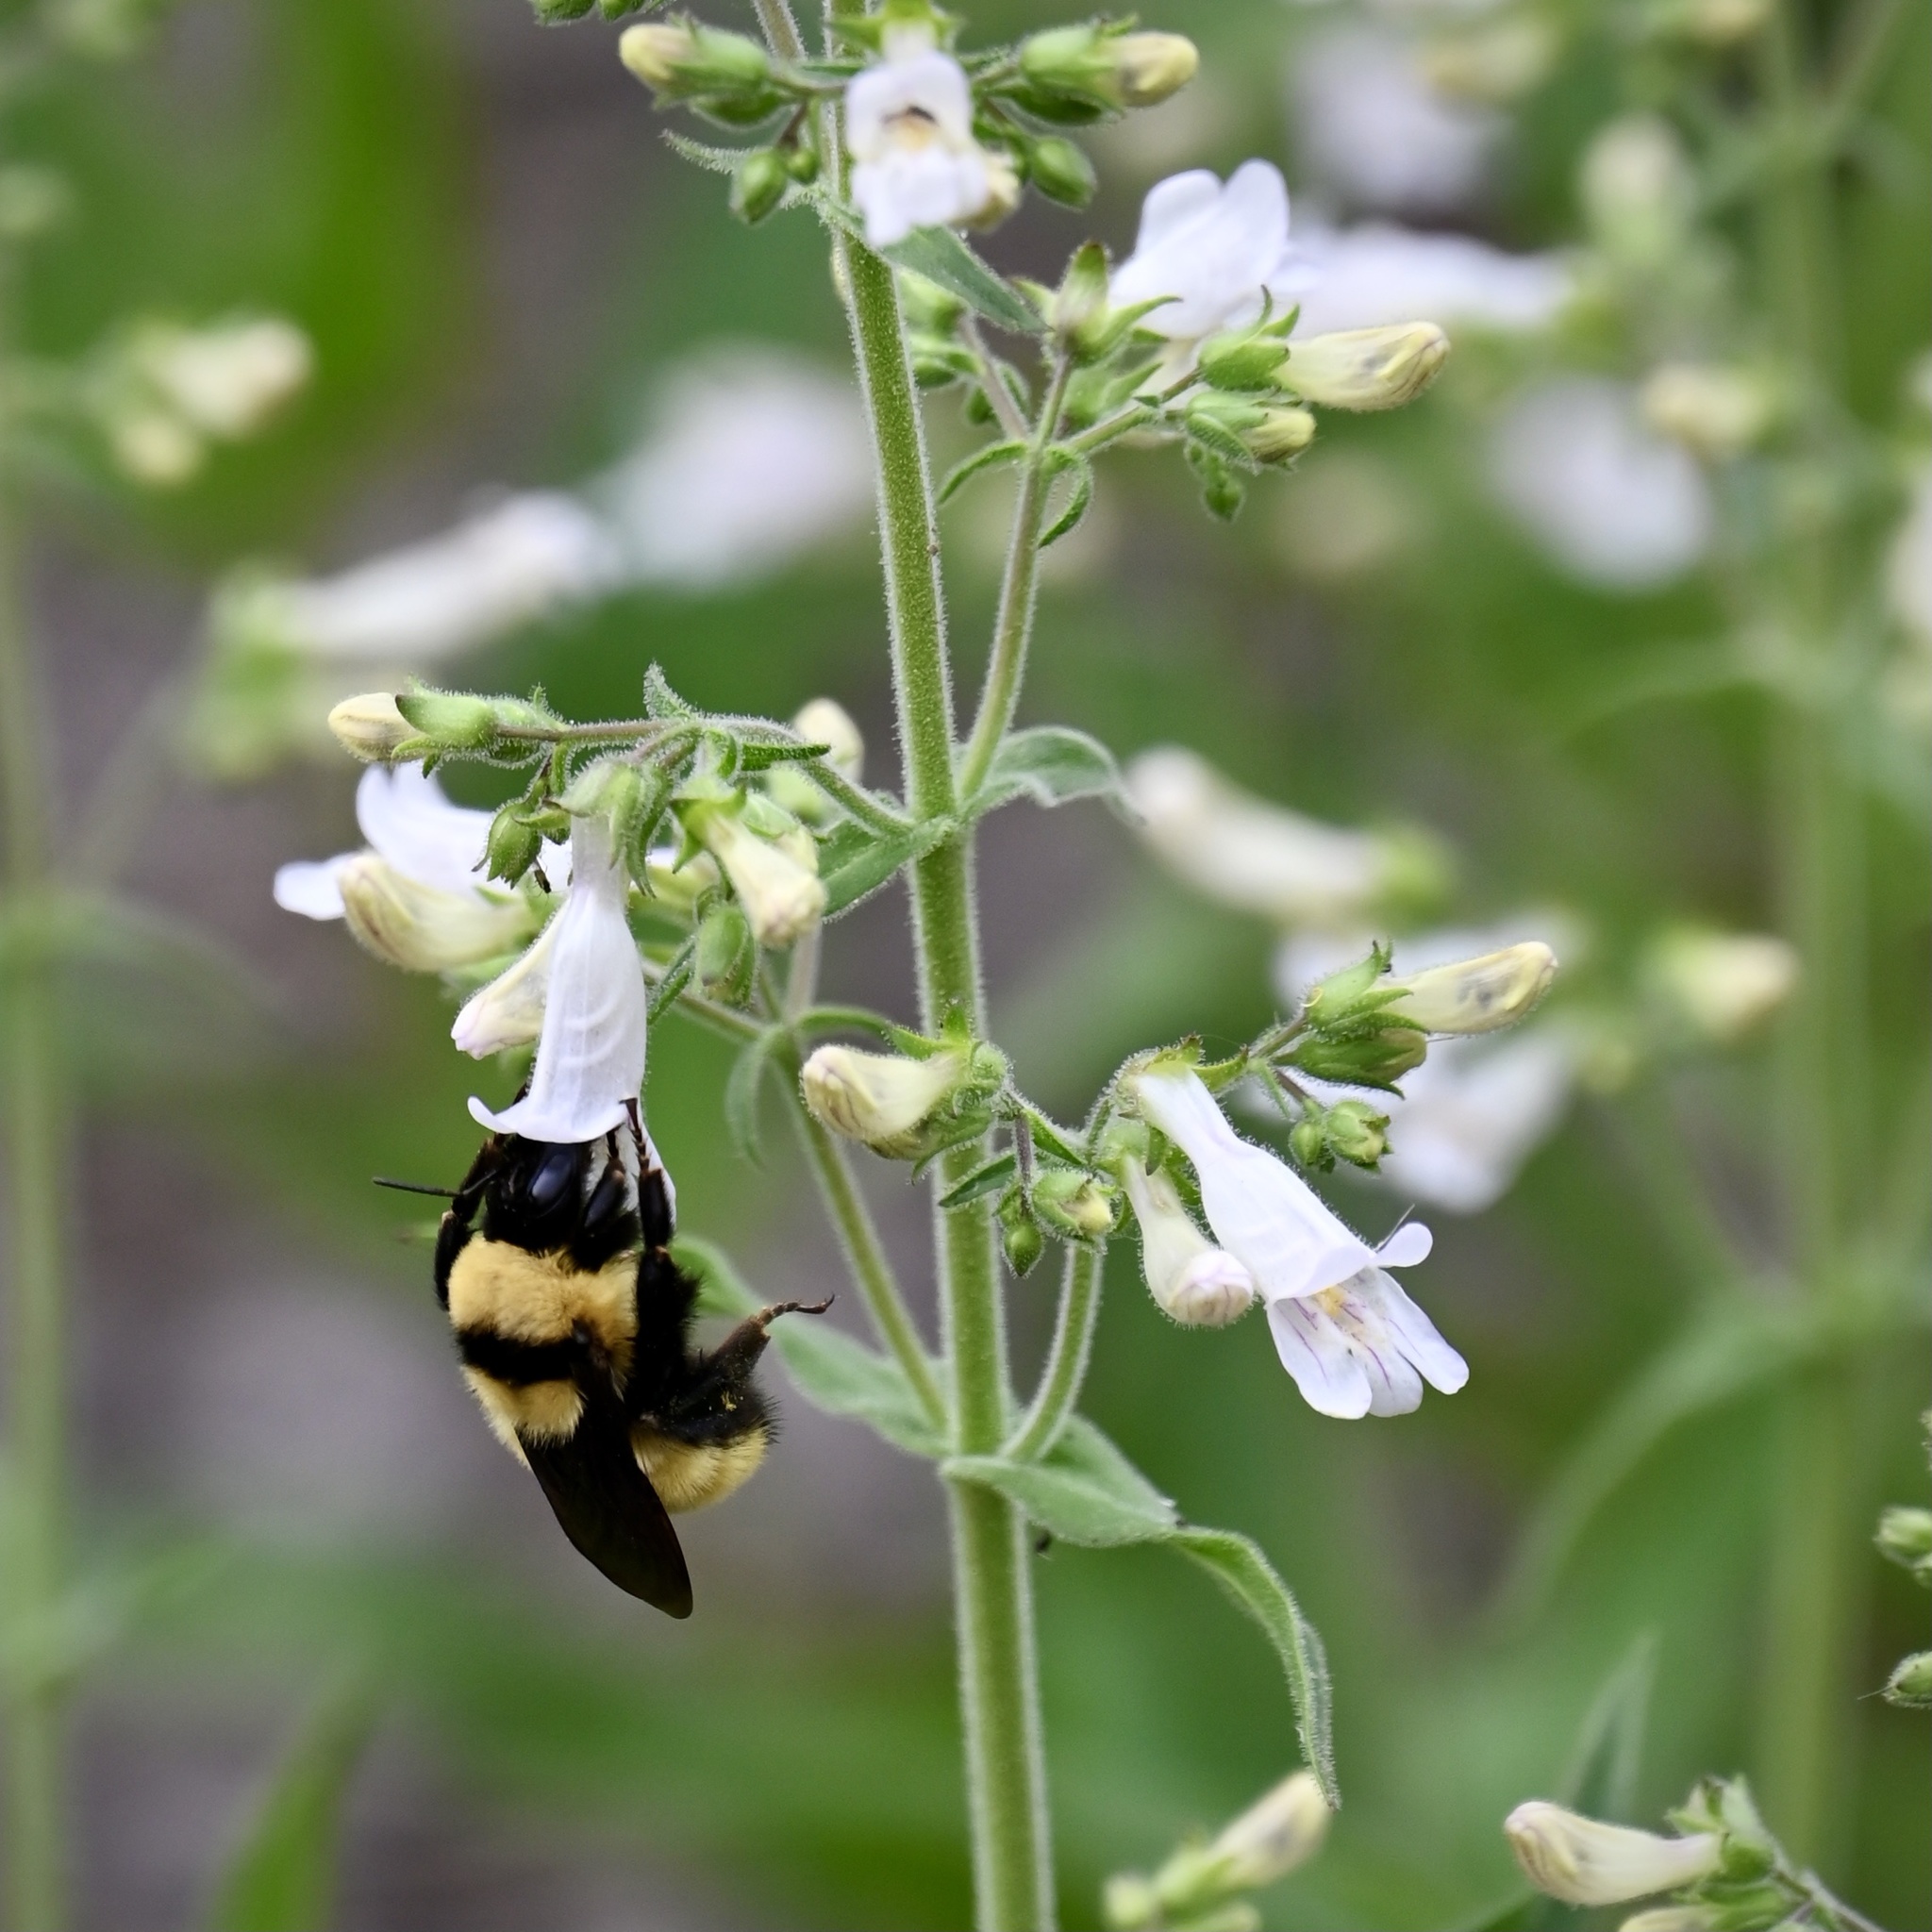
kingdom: Animalia
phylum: Arthropoda
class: Insecta
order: Hymenoptera
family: Apidae
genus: Bombus
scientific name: Bombus fervidus
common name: Yellow bumble bee
